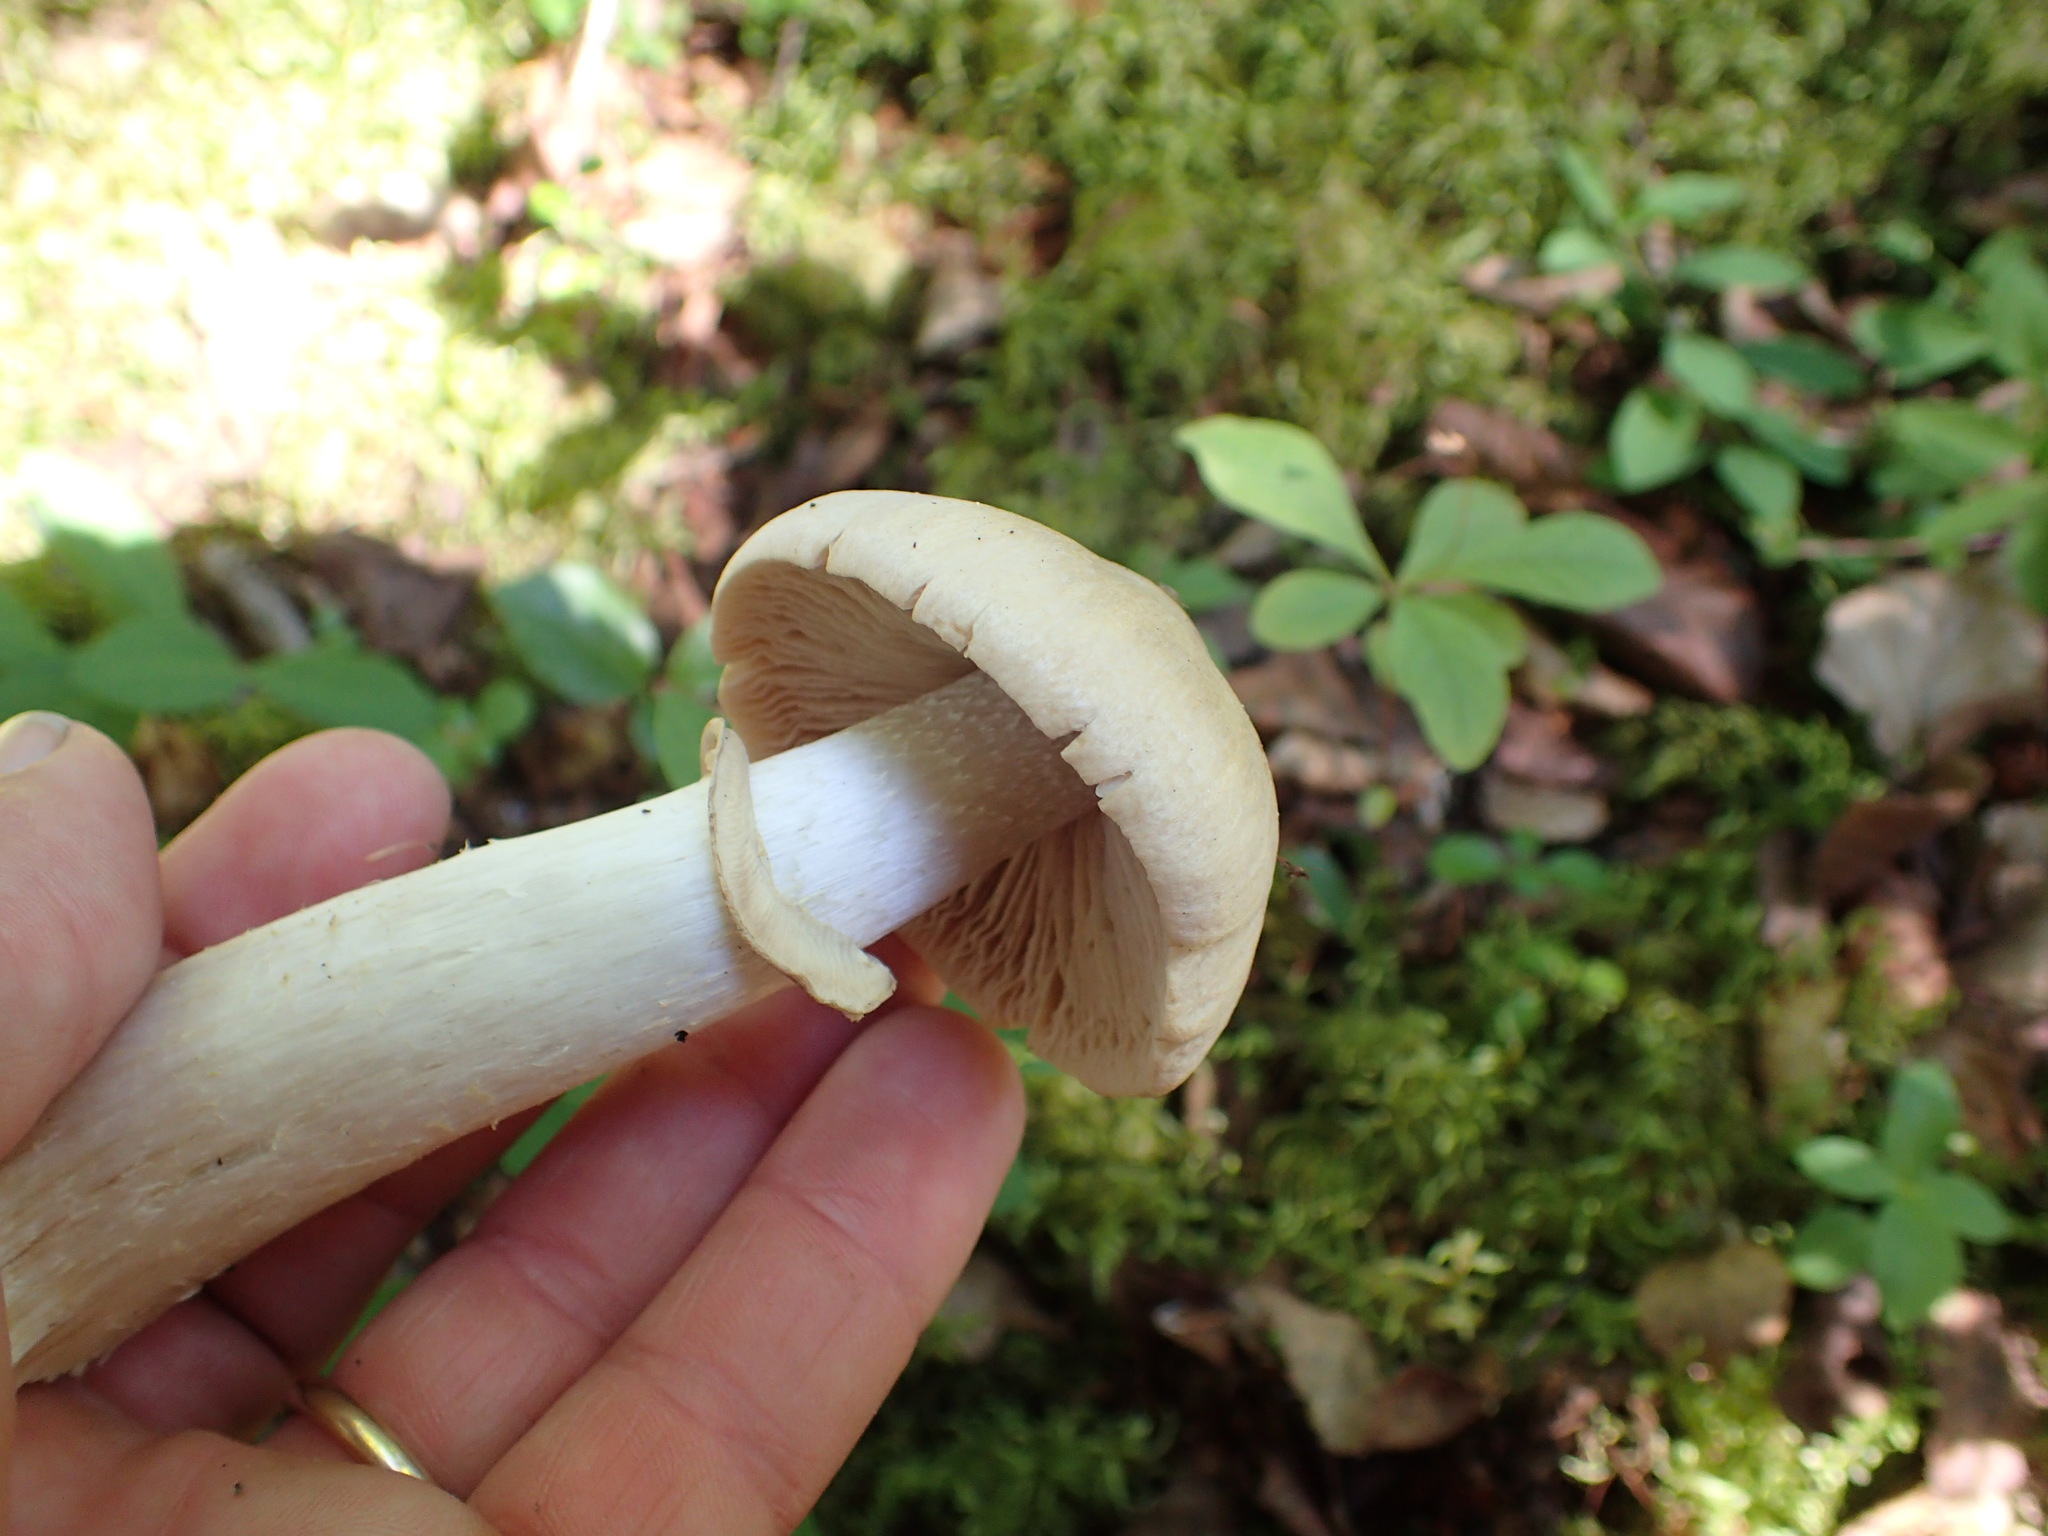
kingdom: Fungi
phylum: Basidiomycota
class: Agaricomycetes
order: Agaricales
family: Cortinariaceae
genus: Cortinarius
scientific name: Cortinarius caperatus
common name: The gypsy
